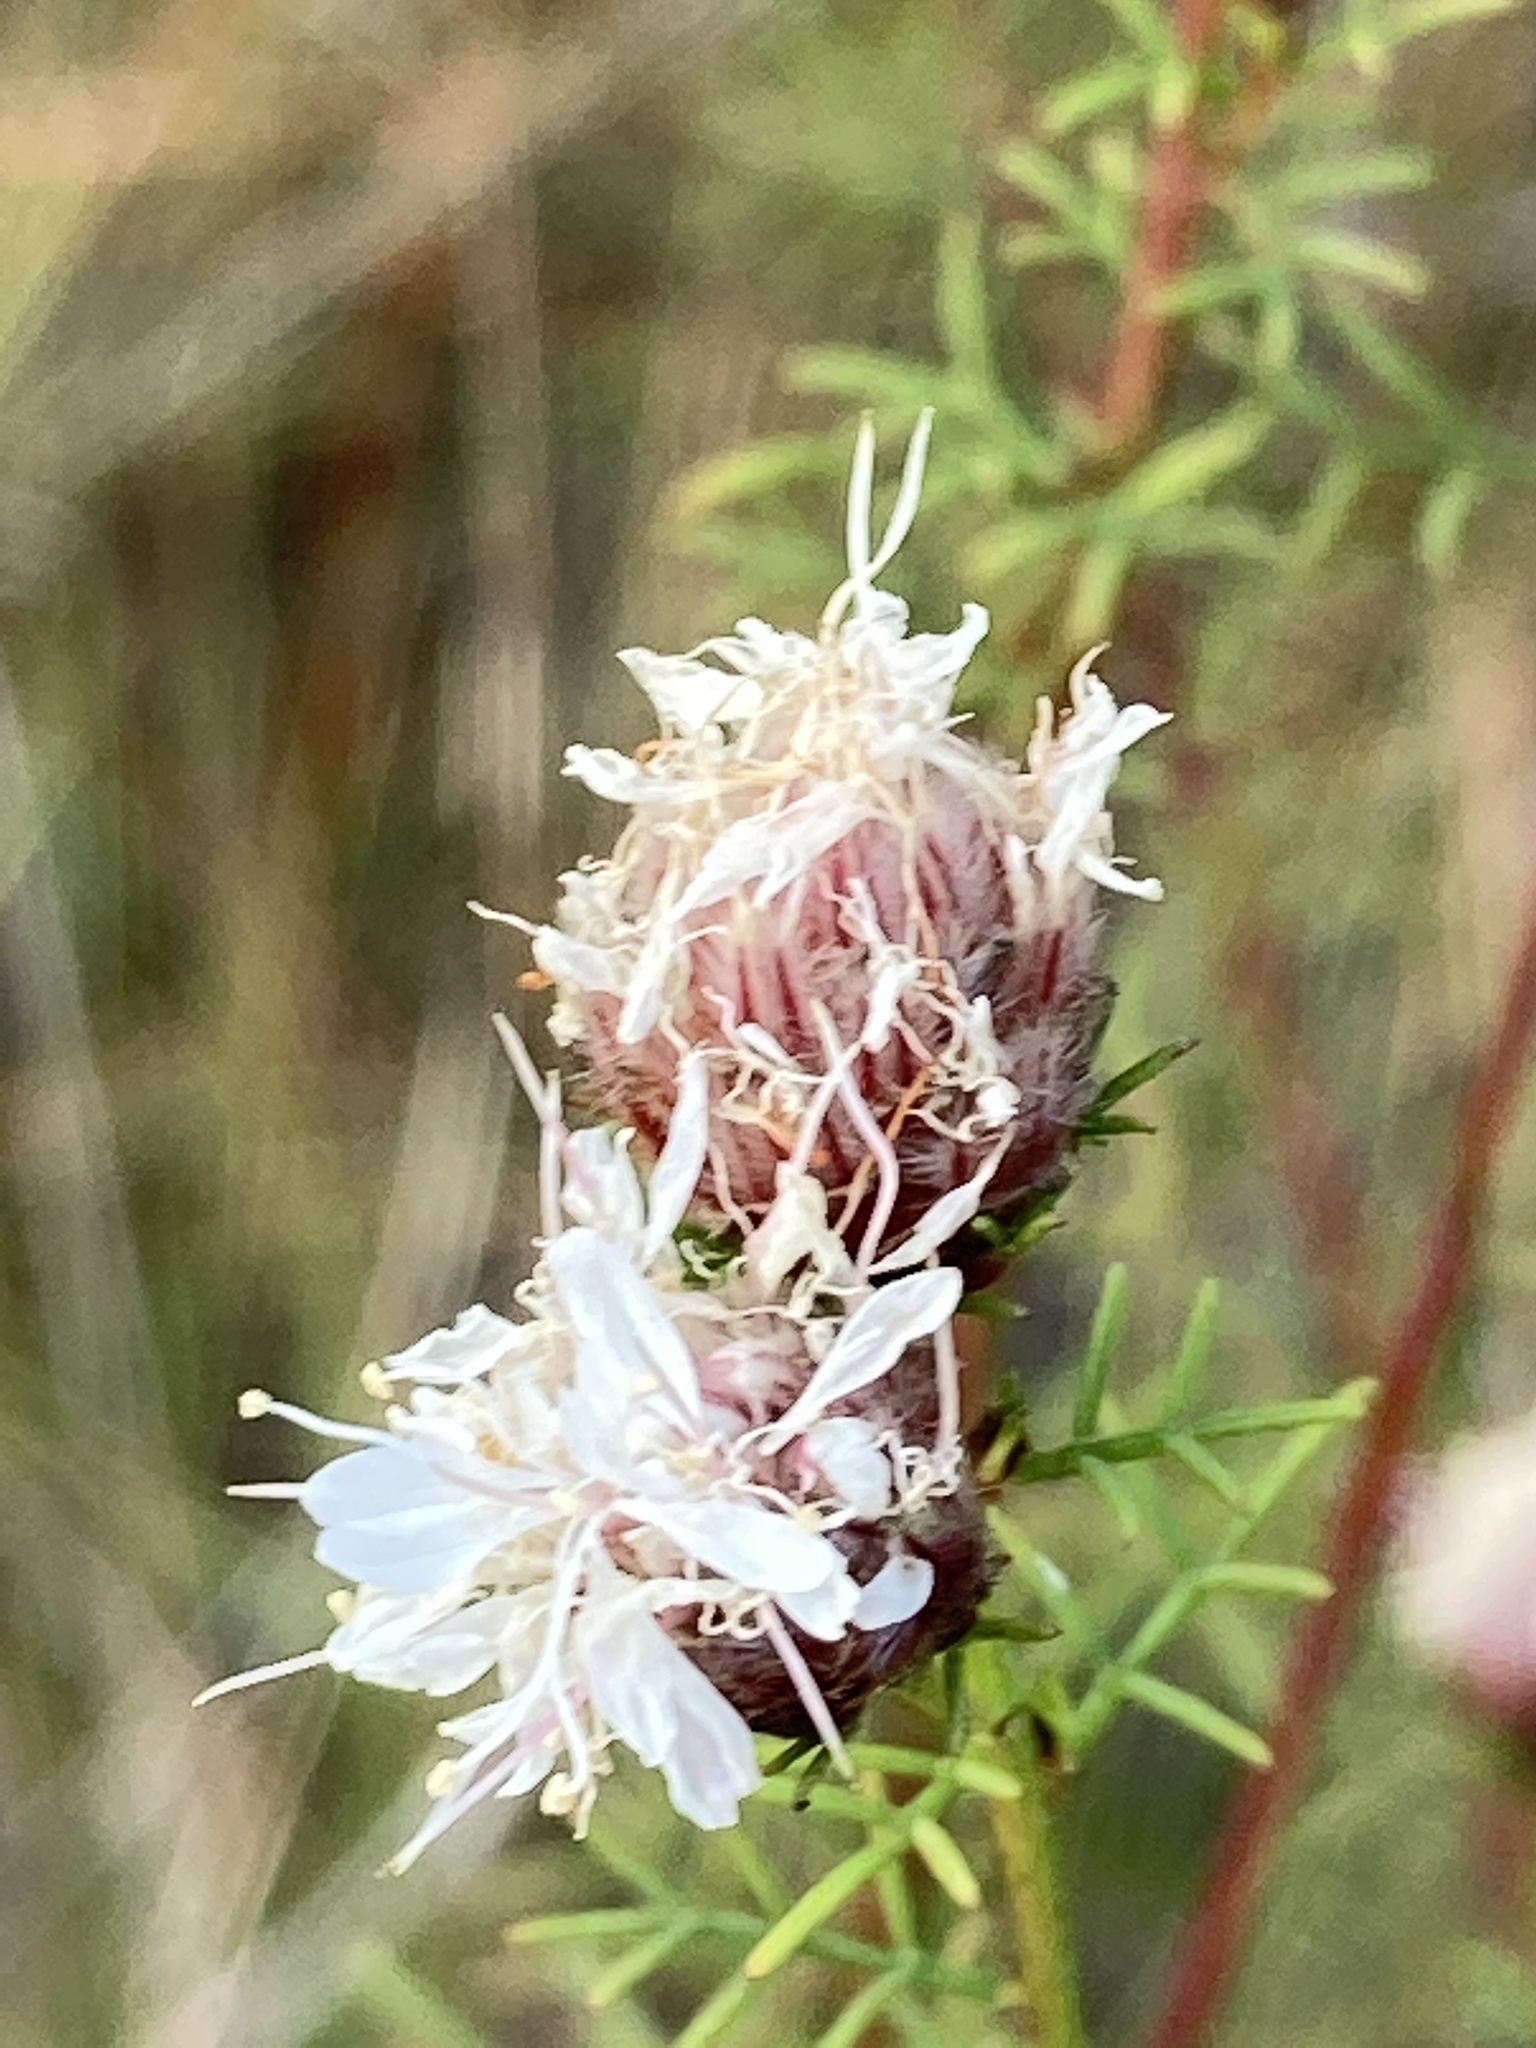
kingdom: Plantae
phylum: Tracheophyta
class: Magnoliopsida
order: Fabales
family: Fabaceae
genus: Dalea
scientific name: Dalea pinnata
